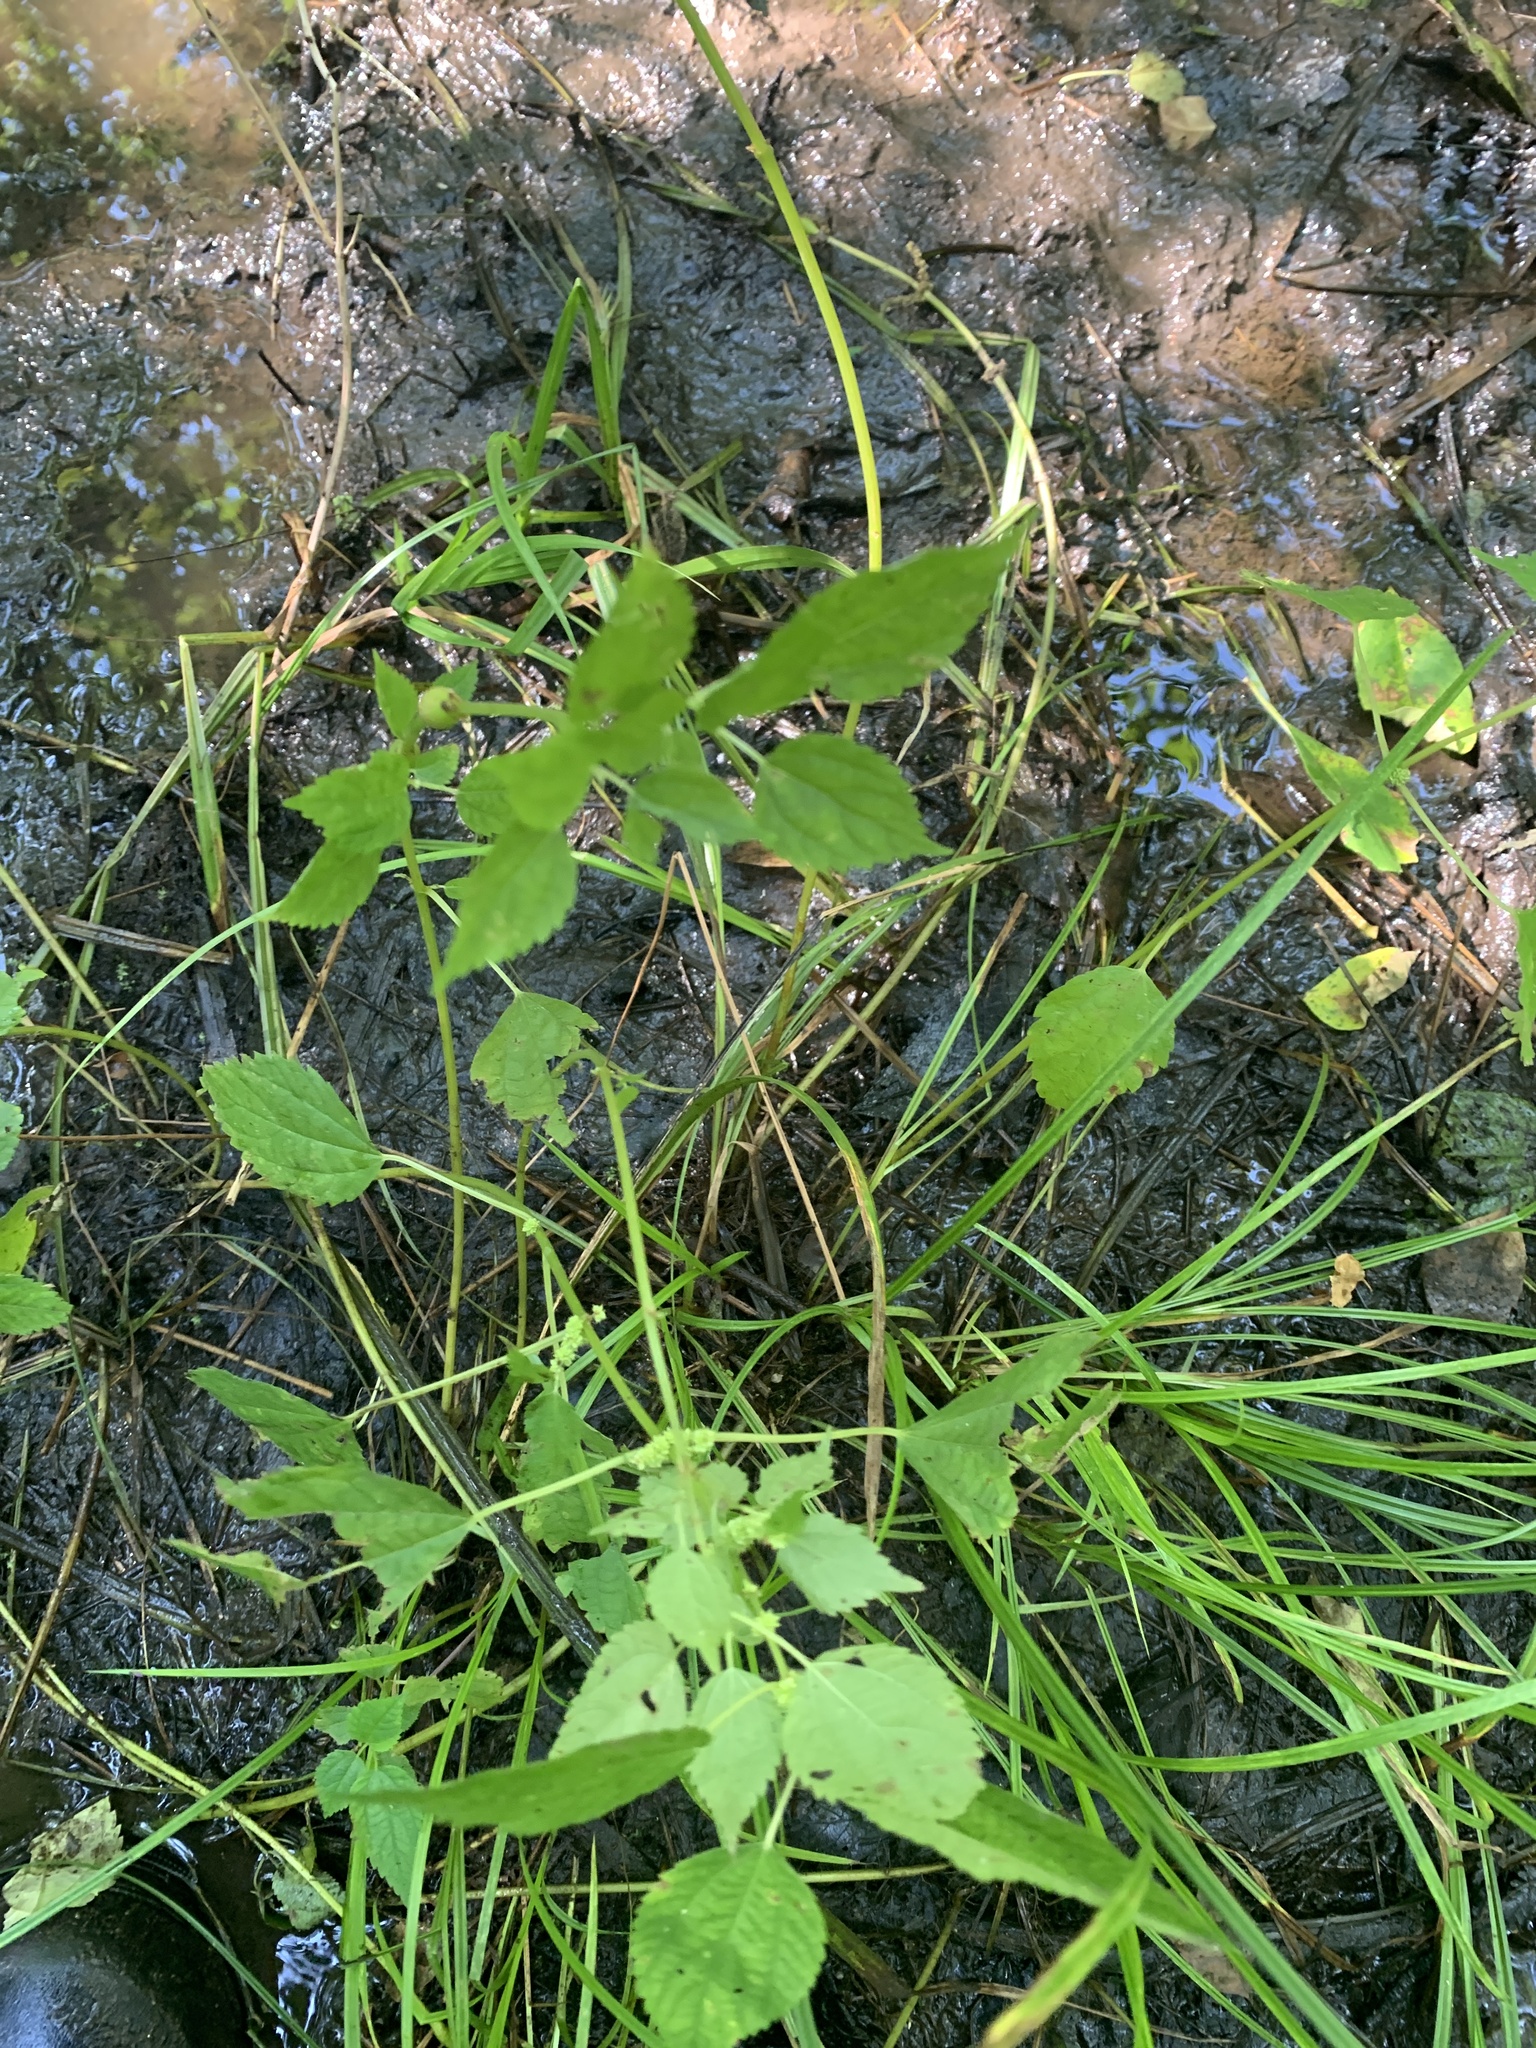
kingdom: Animalia
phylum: Arthropoda
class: Insecta
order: Diptera
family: Cecidomyiidae
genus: Neolasioptera
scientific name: Neolasioptera boehmeriae
